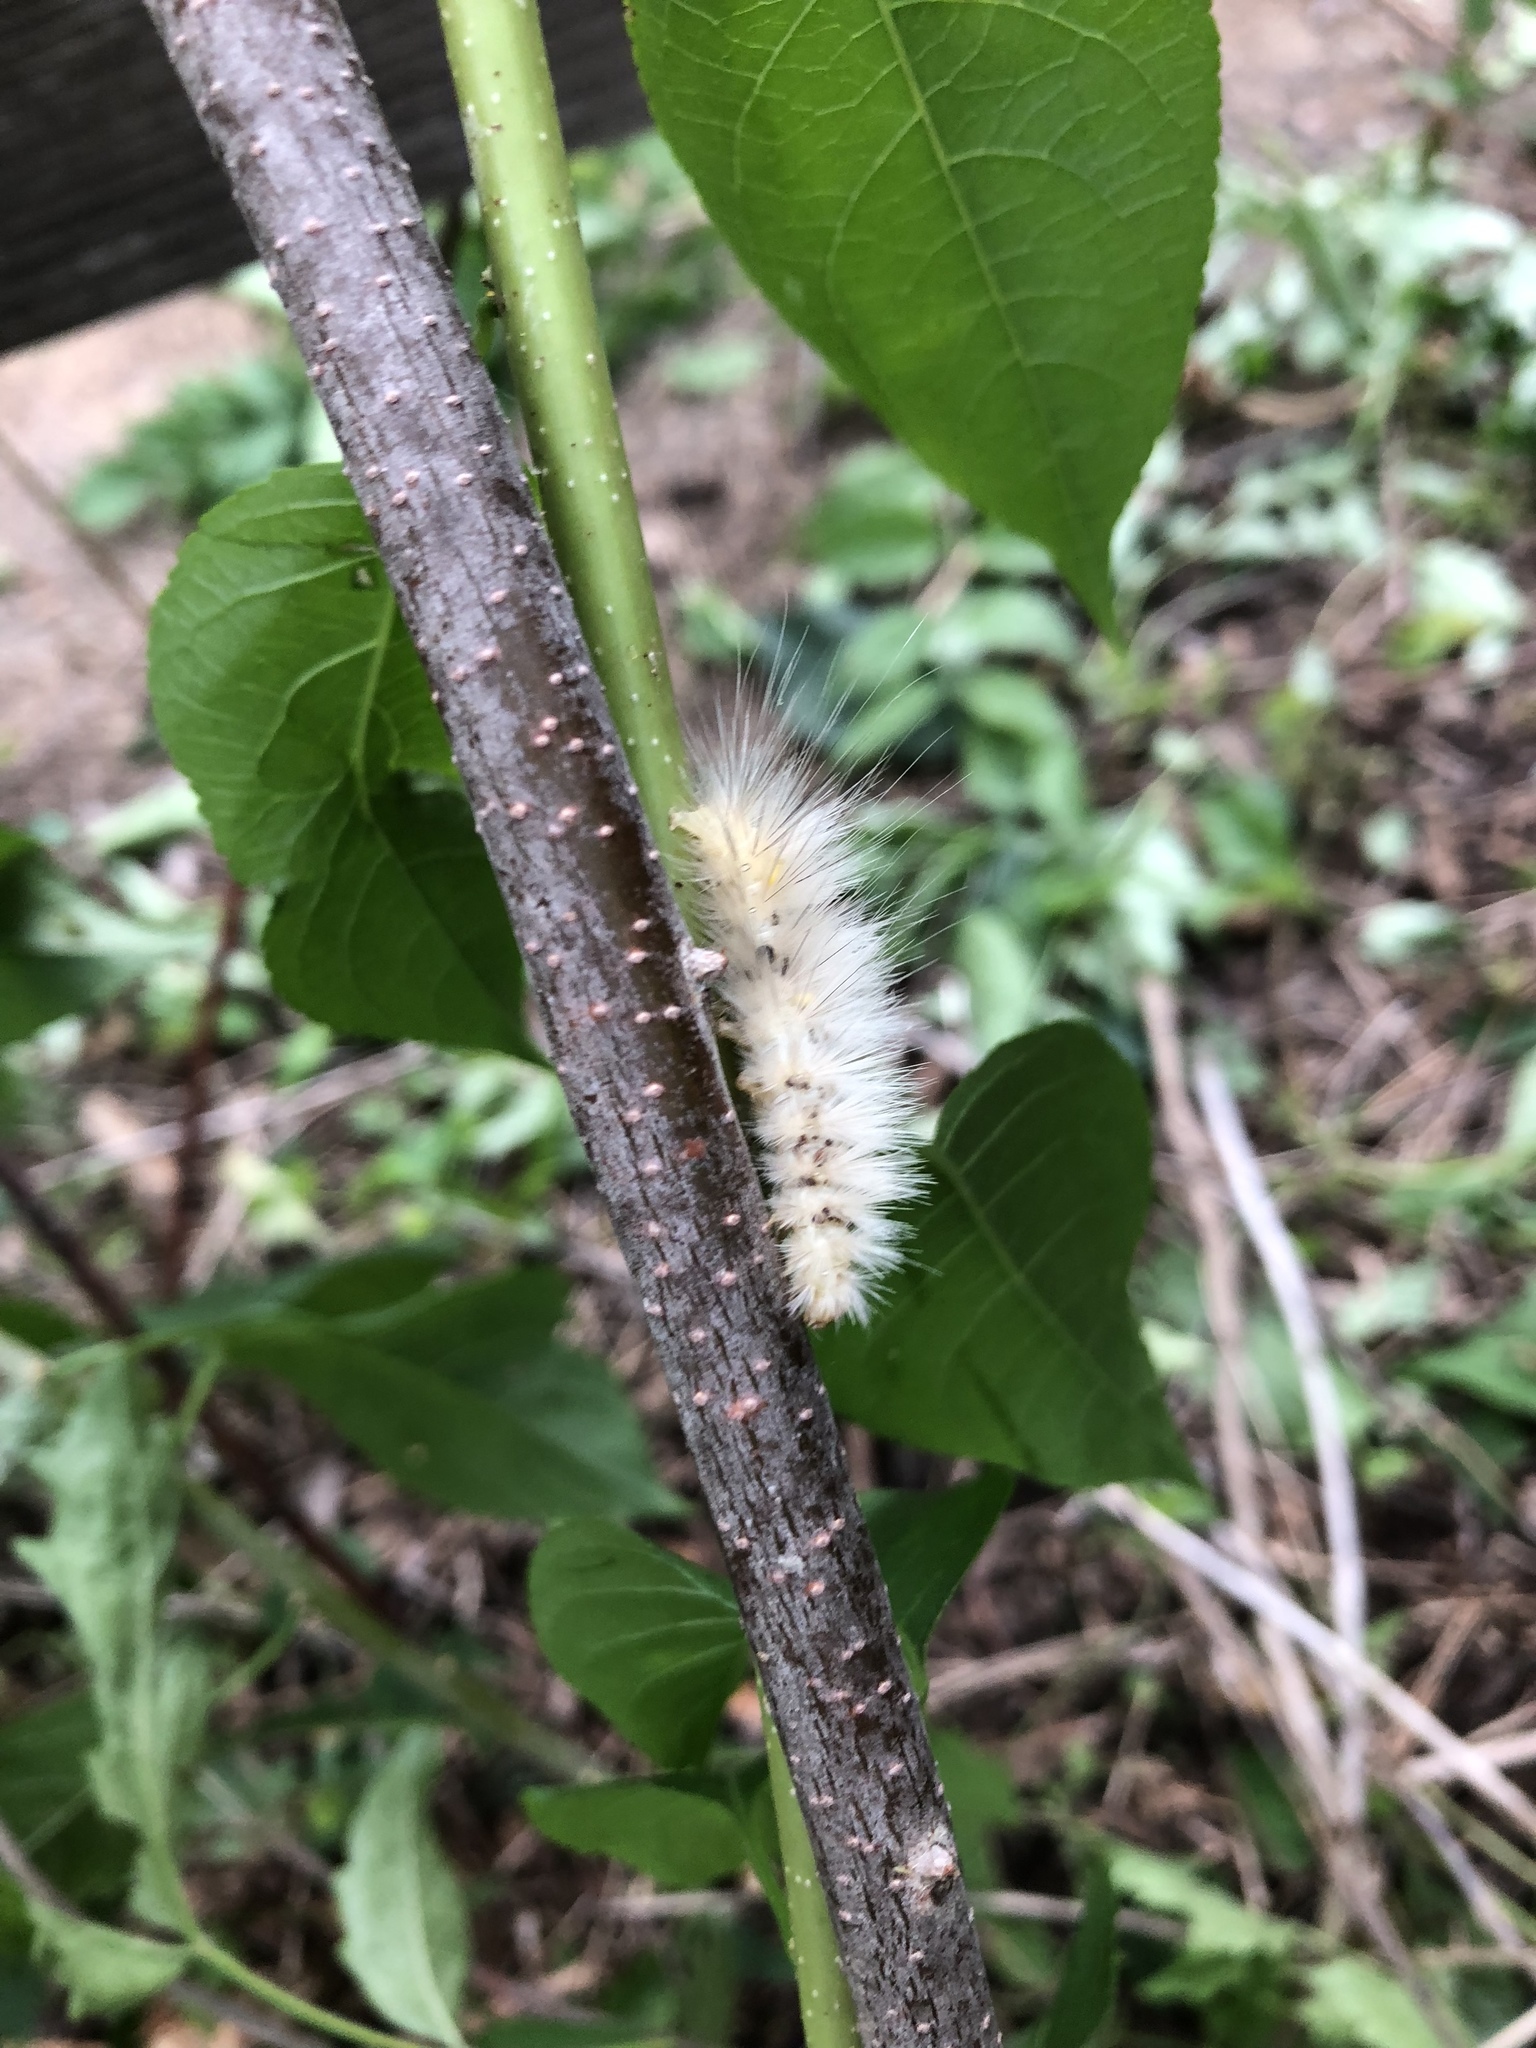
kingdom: Animalia
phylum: Arthropoda
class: Insecta
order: Lepidoptera
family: Erebidae
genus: Spilosoma
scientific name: Spilosoma virginica
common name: Virginia tiger moth
